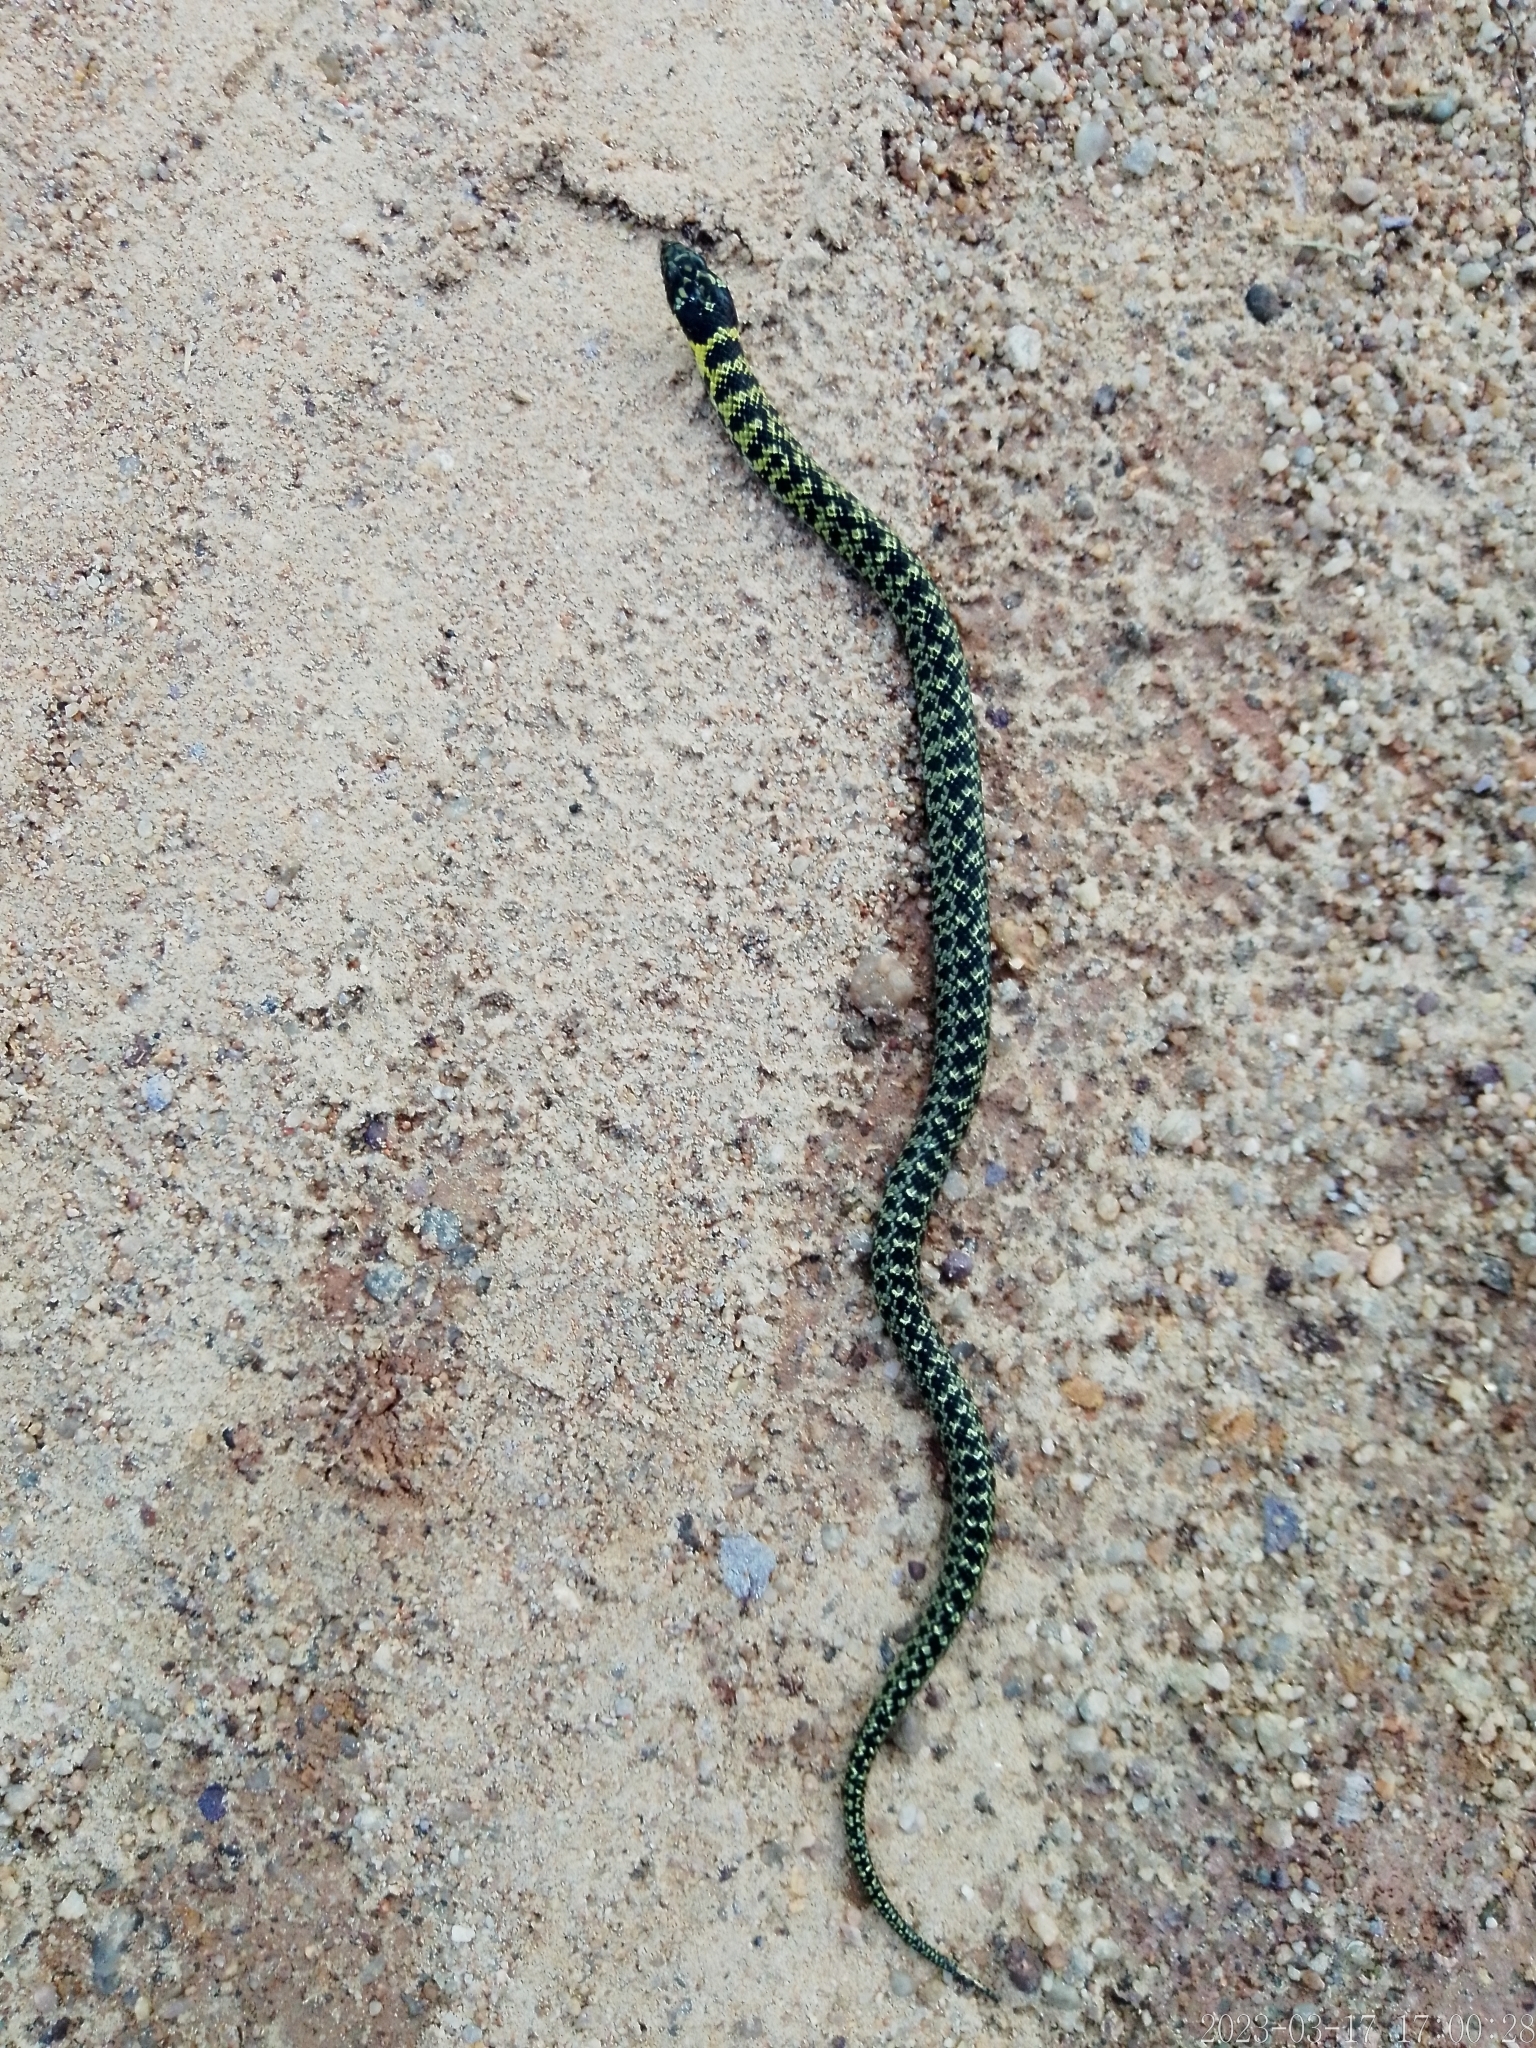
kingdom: Animalia
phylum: Chordata
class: Squamata
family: Colubridae
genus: Erythrolamprus
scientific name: Erythrolamprus poecilogyrus
